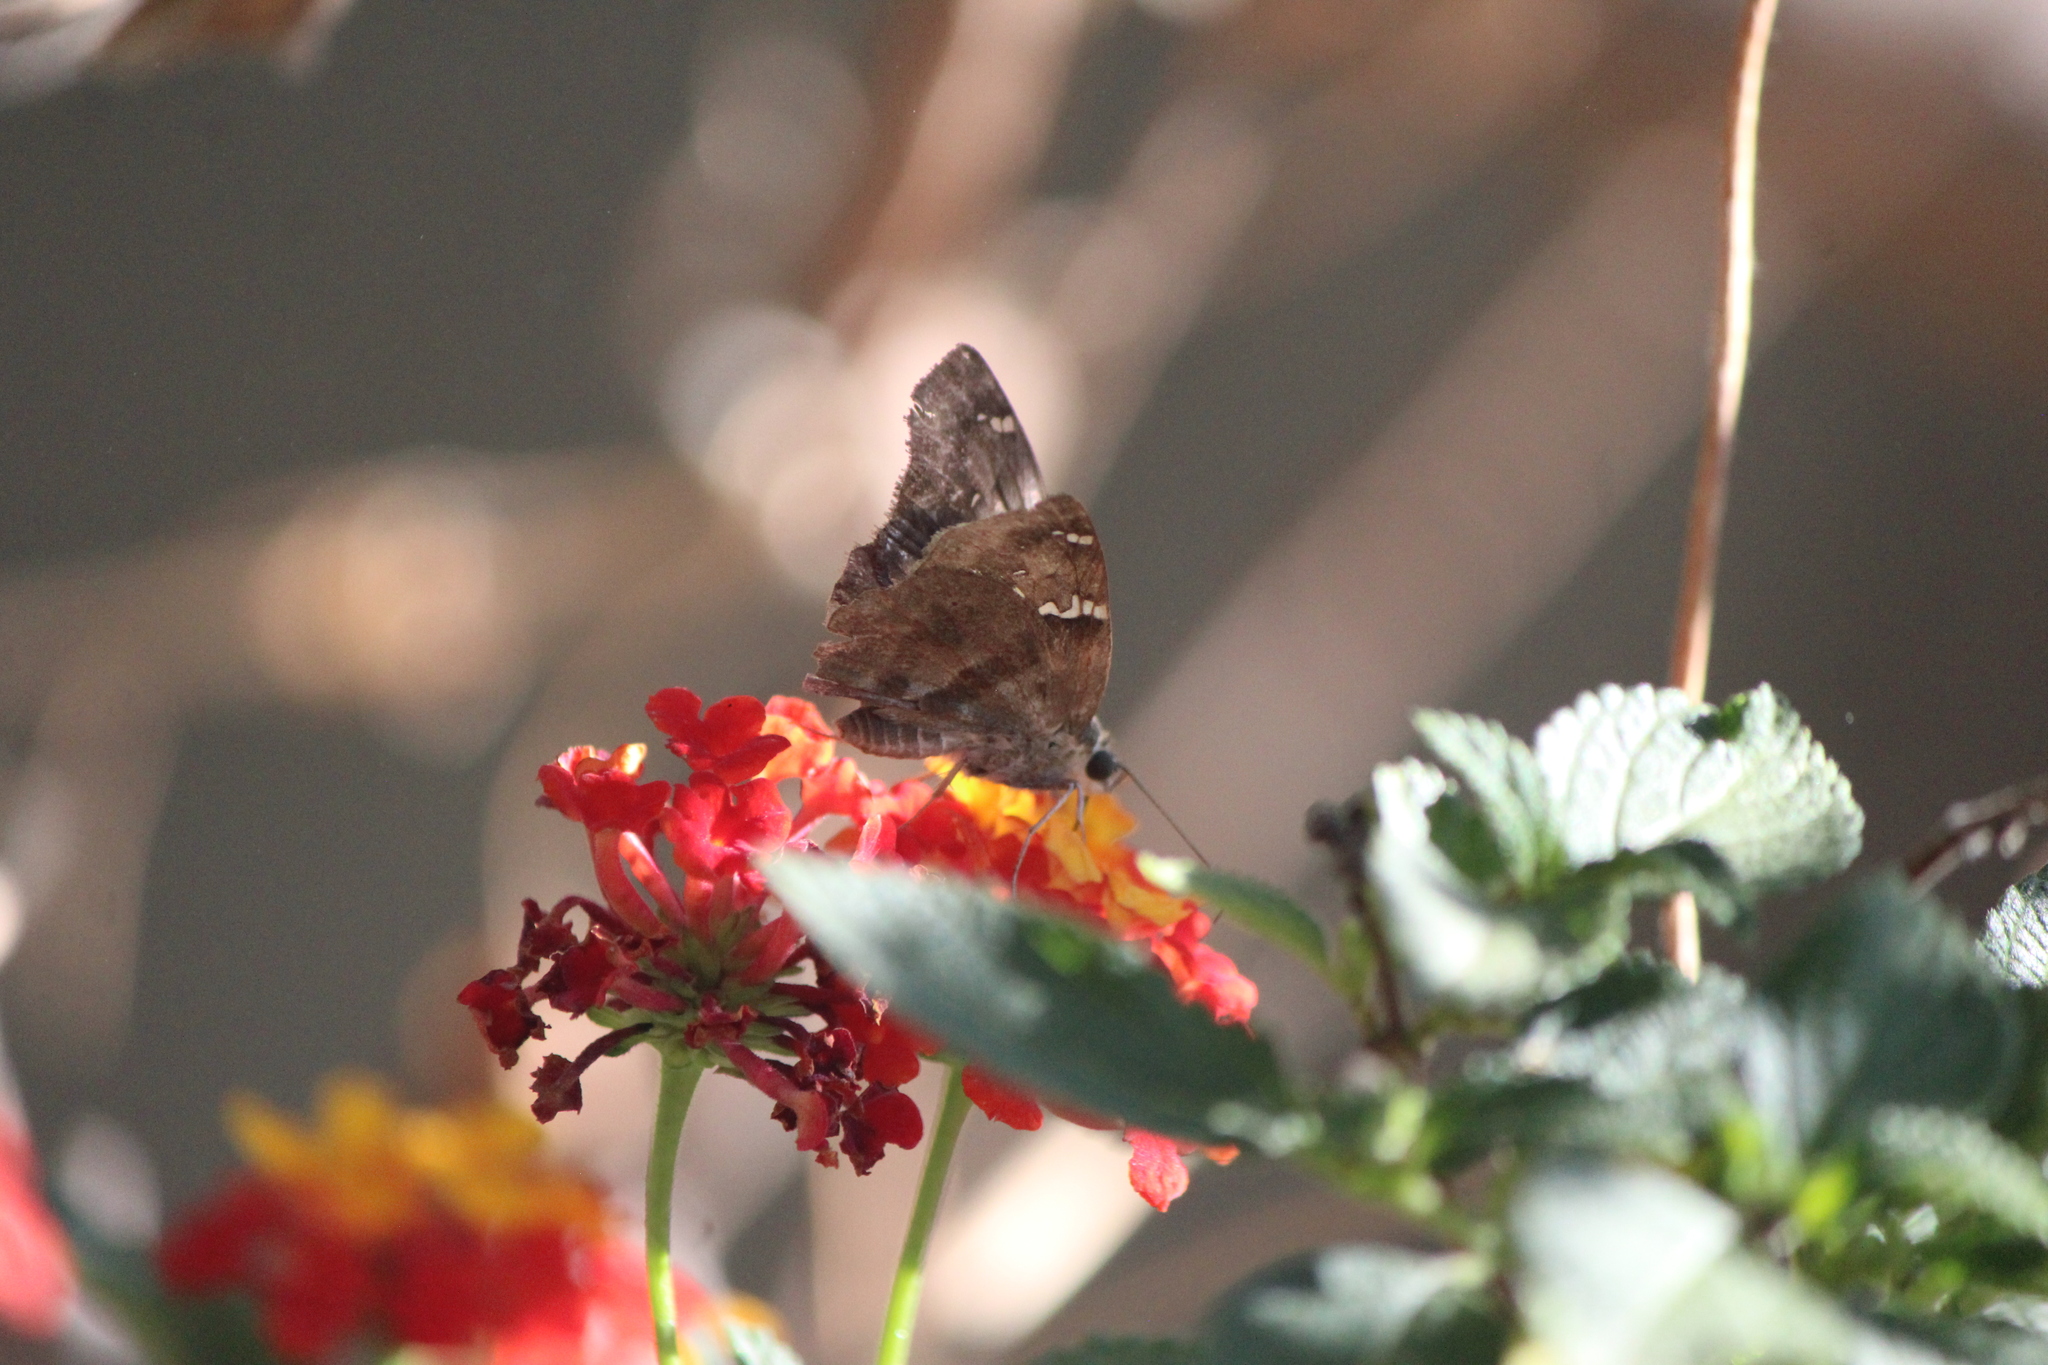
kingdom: Animalia
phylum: Arthropoda
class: Insecta
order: Lepidoptera
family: Hesperiidae
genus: Autochton
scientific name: Autochton potrillo
